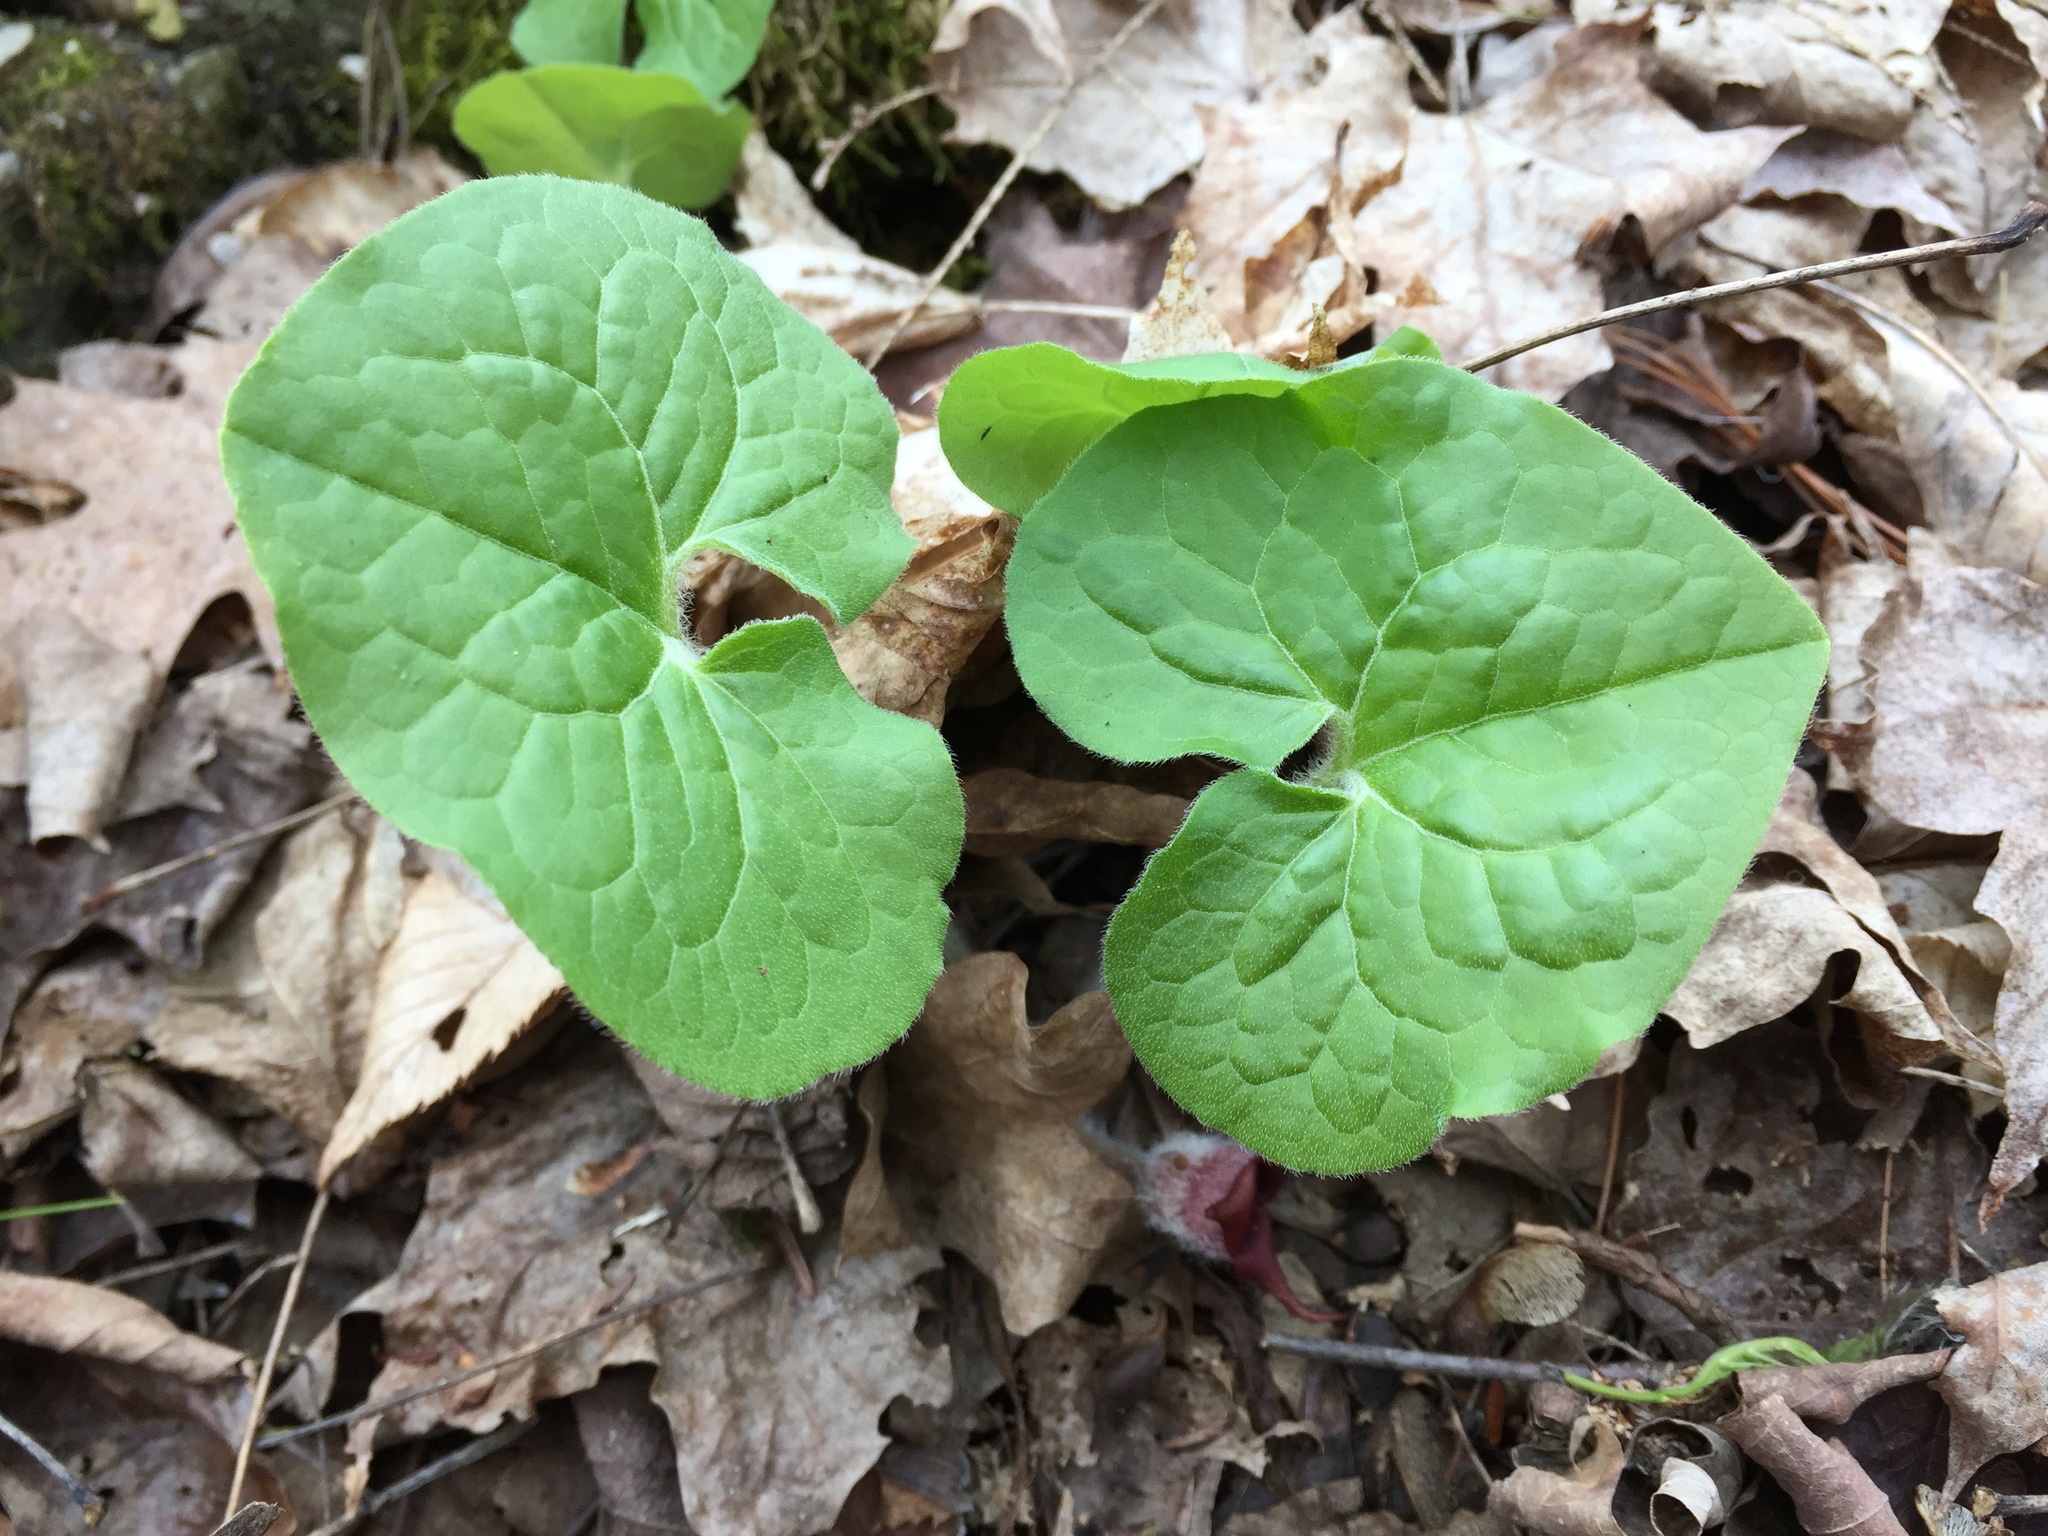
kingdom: Plantae
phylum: Tracheophyta
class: Magnoliopsida
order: Piperales
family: Aristolochiaceae
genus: Asarum
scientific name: Asarum canadense
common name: Wild ginger
